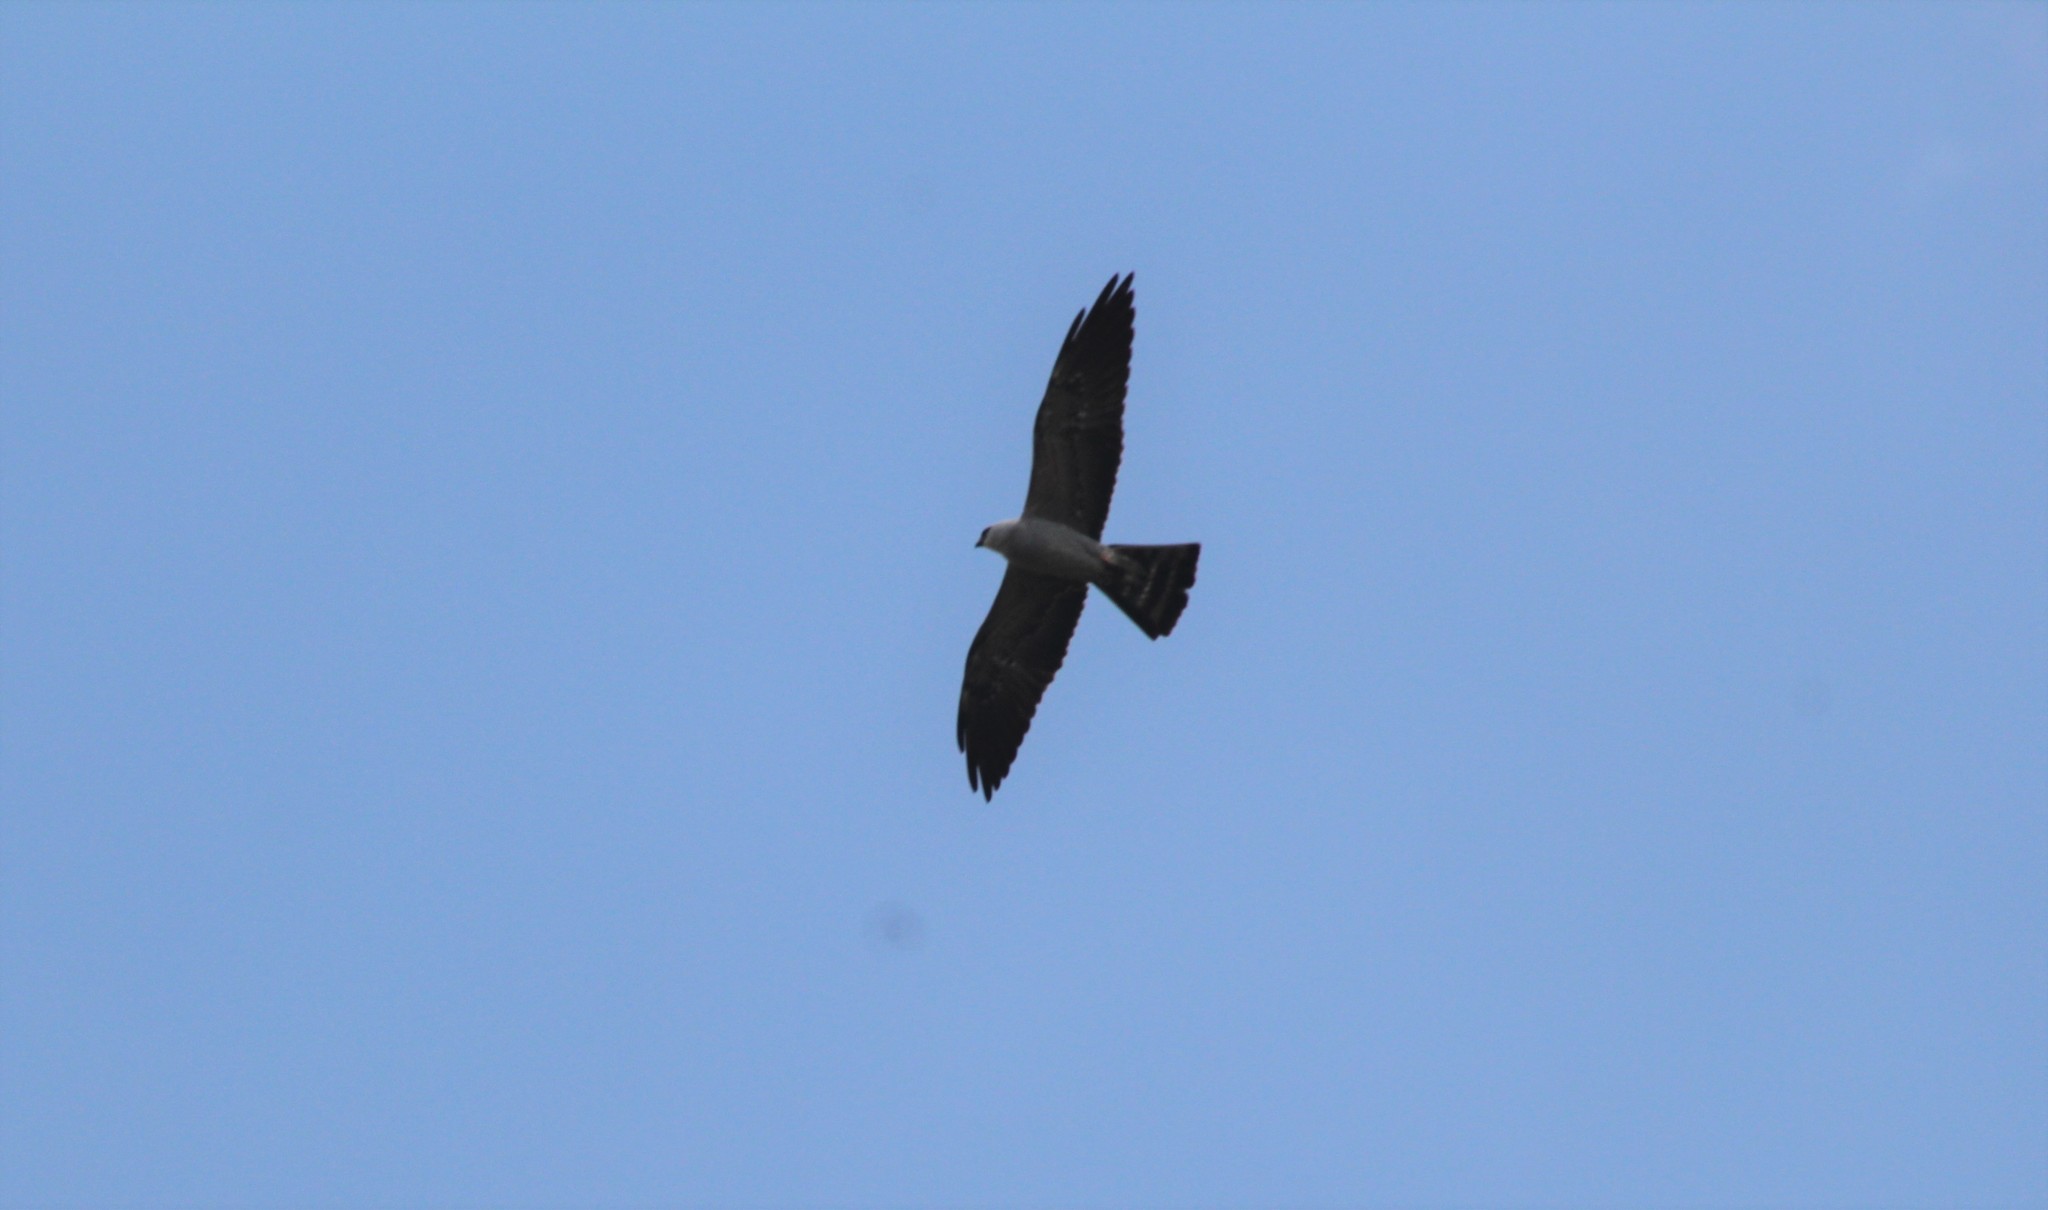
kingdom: Animalia
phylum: Chordata
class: Aves
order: Accipitriformes
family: Accipitridae
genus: Ictinia
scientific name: Ictinia mississippiensis
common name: Mississippi kite
